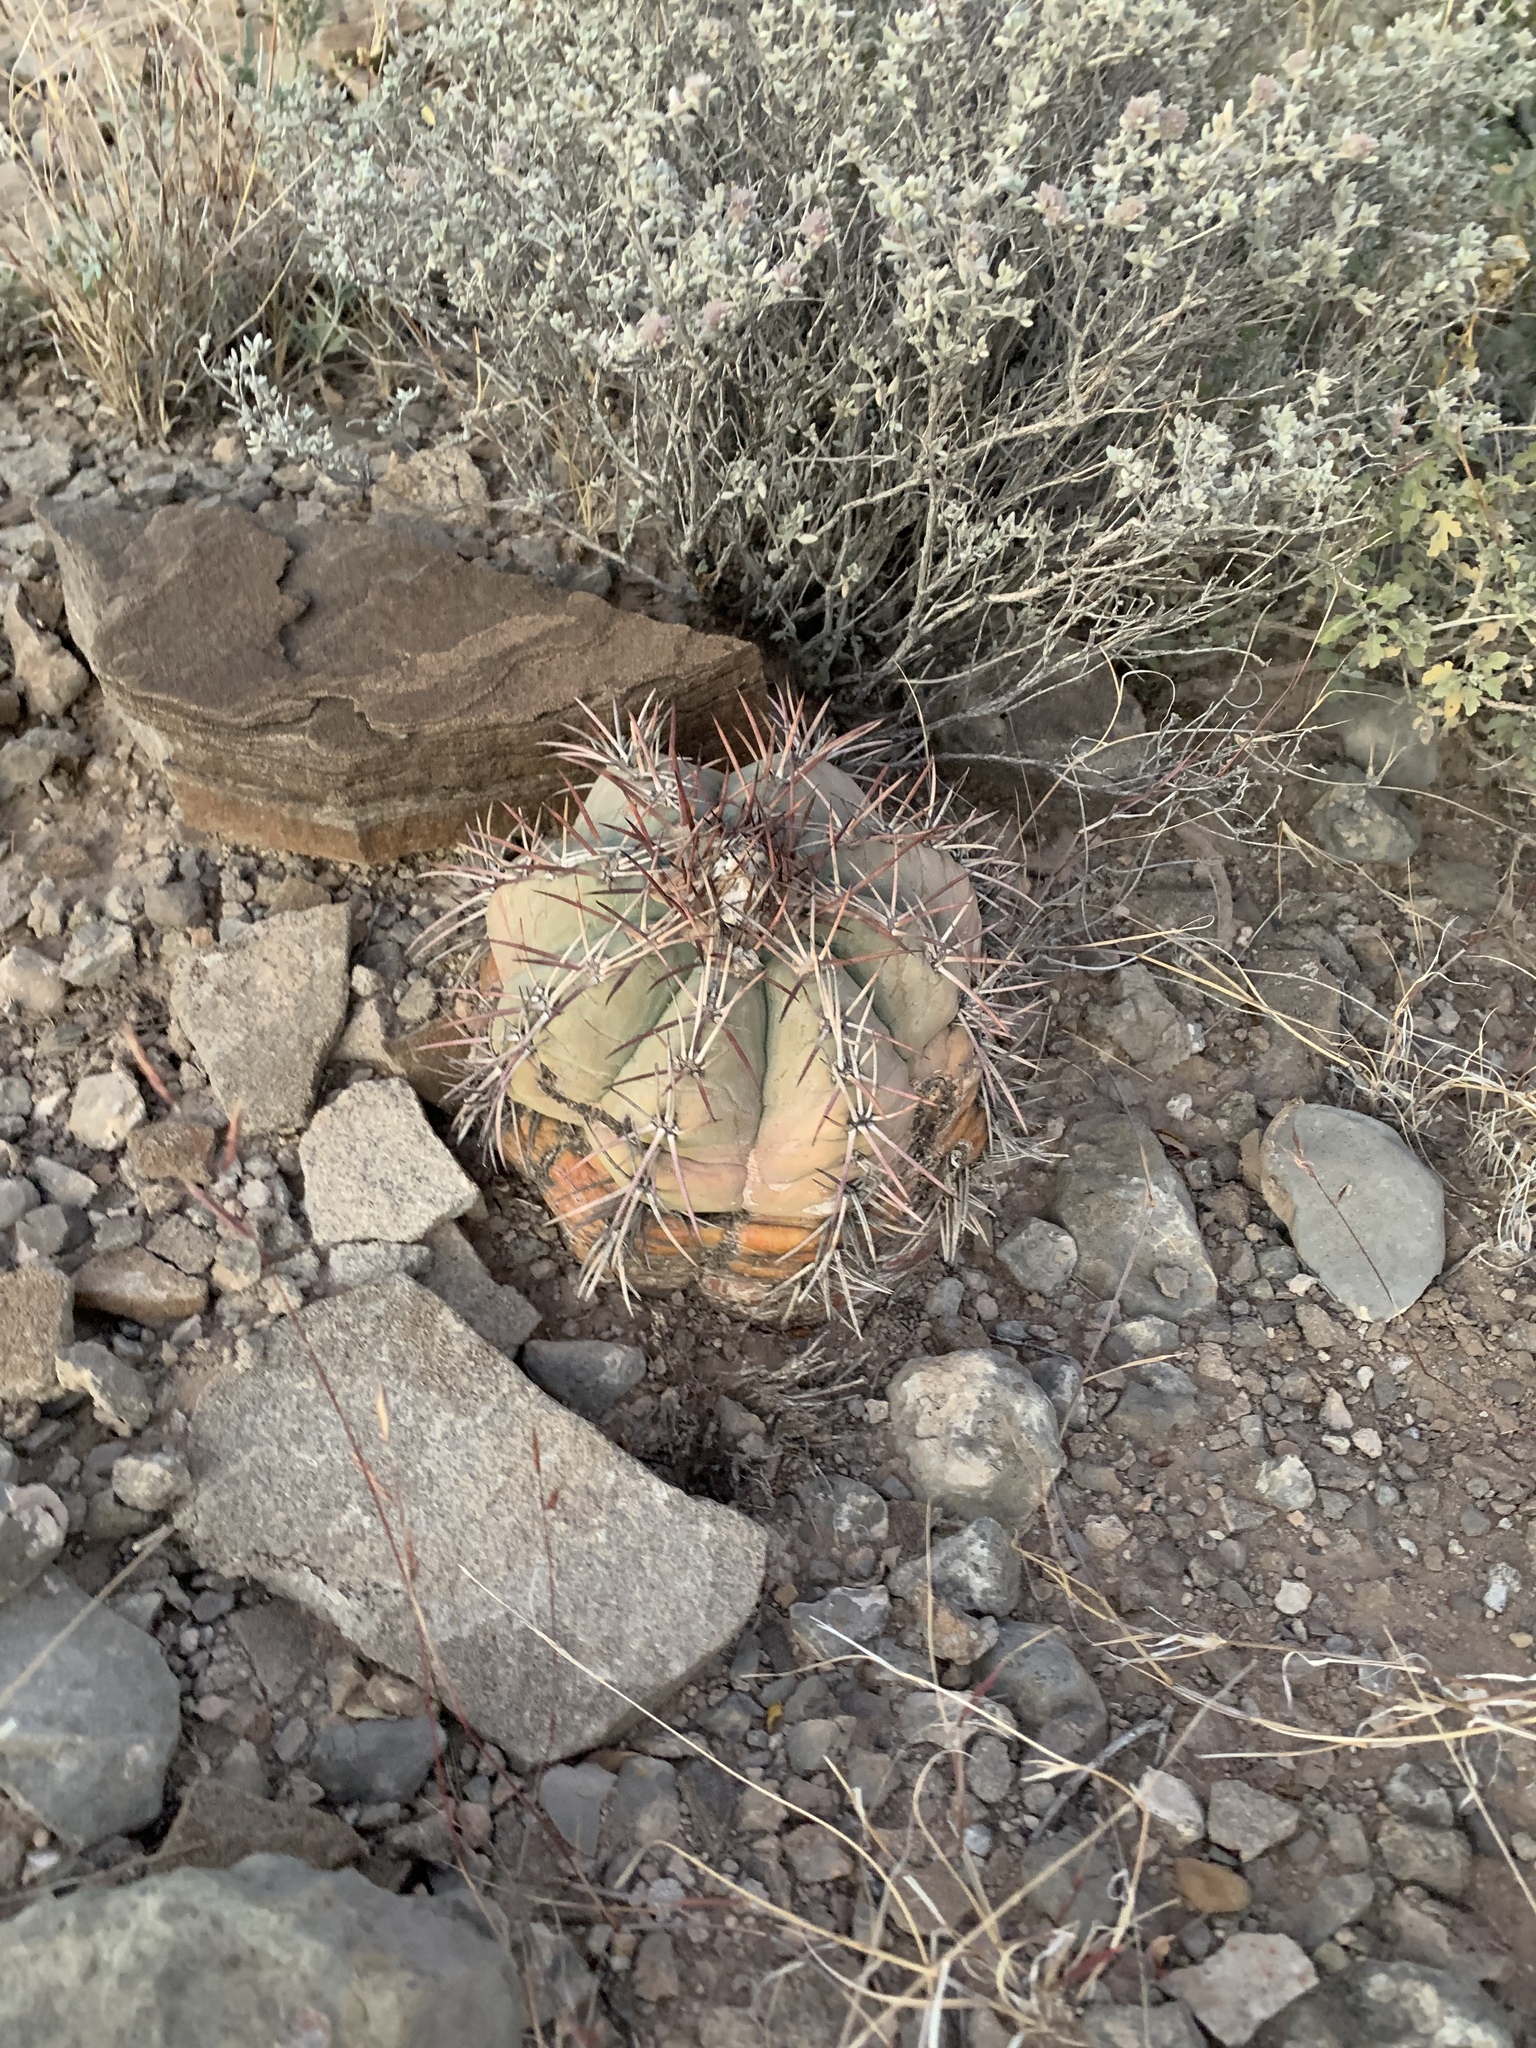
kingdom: Plantae
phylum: Tracheophyta
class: Magnoliopsida
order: Caryophyllales
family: Cactaceae
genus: Echinocactus
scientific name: Echinocactus horizonthalonius
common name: Devilshead
